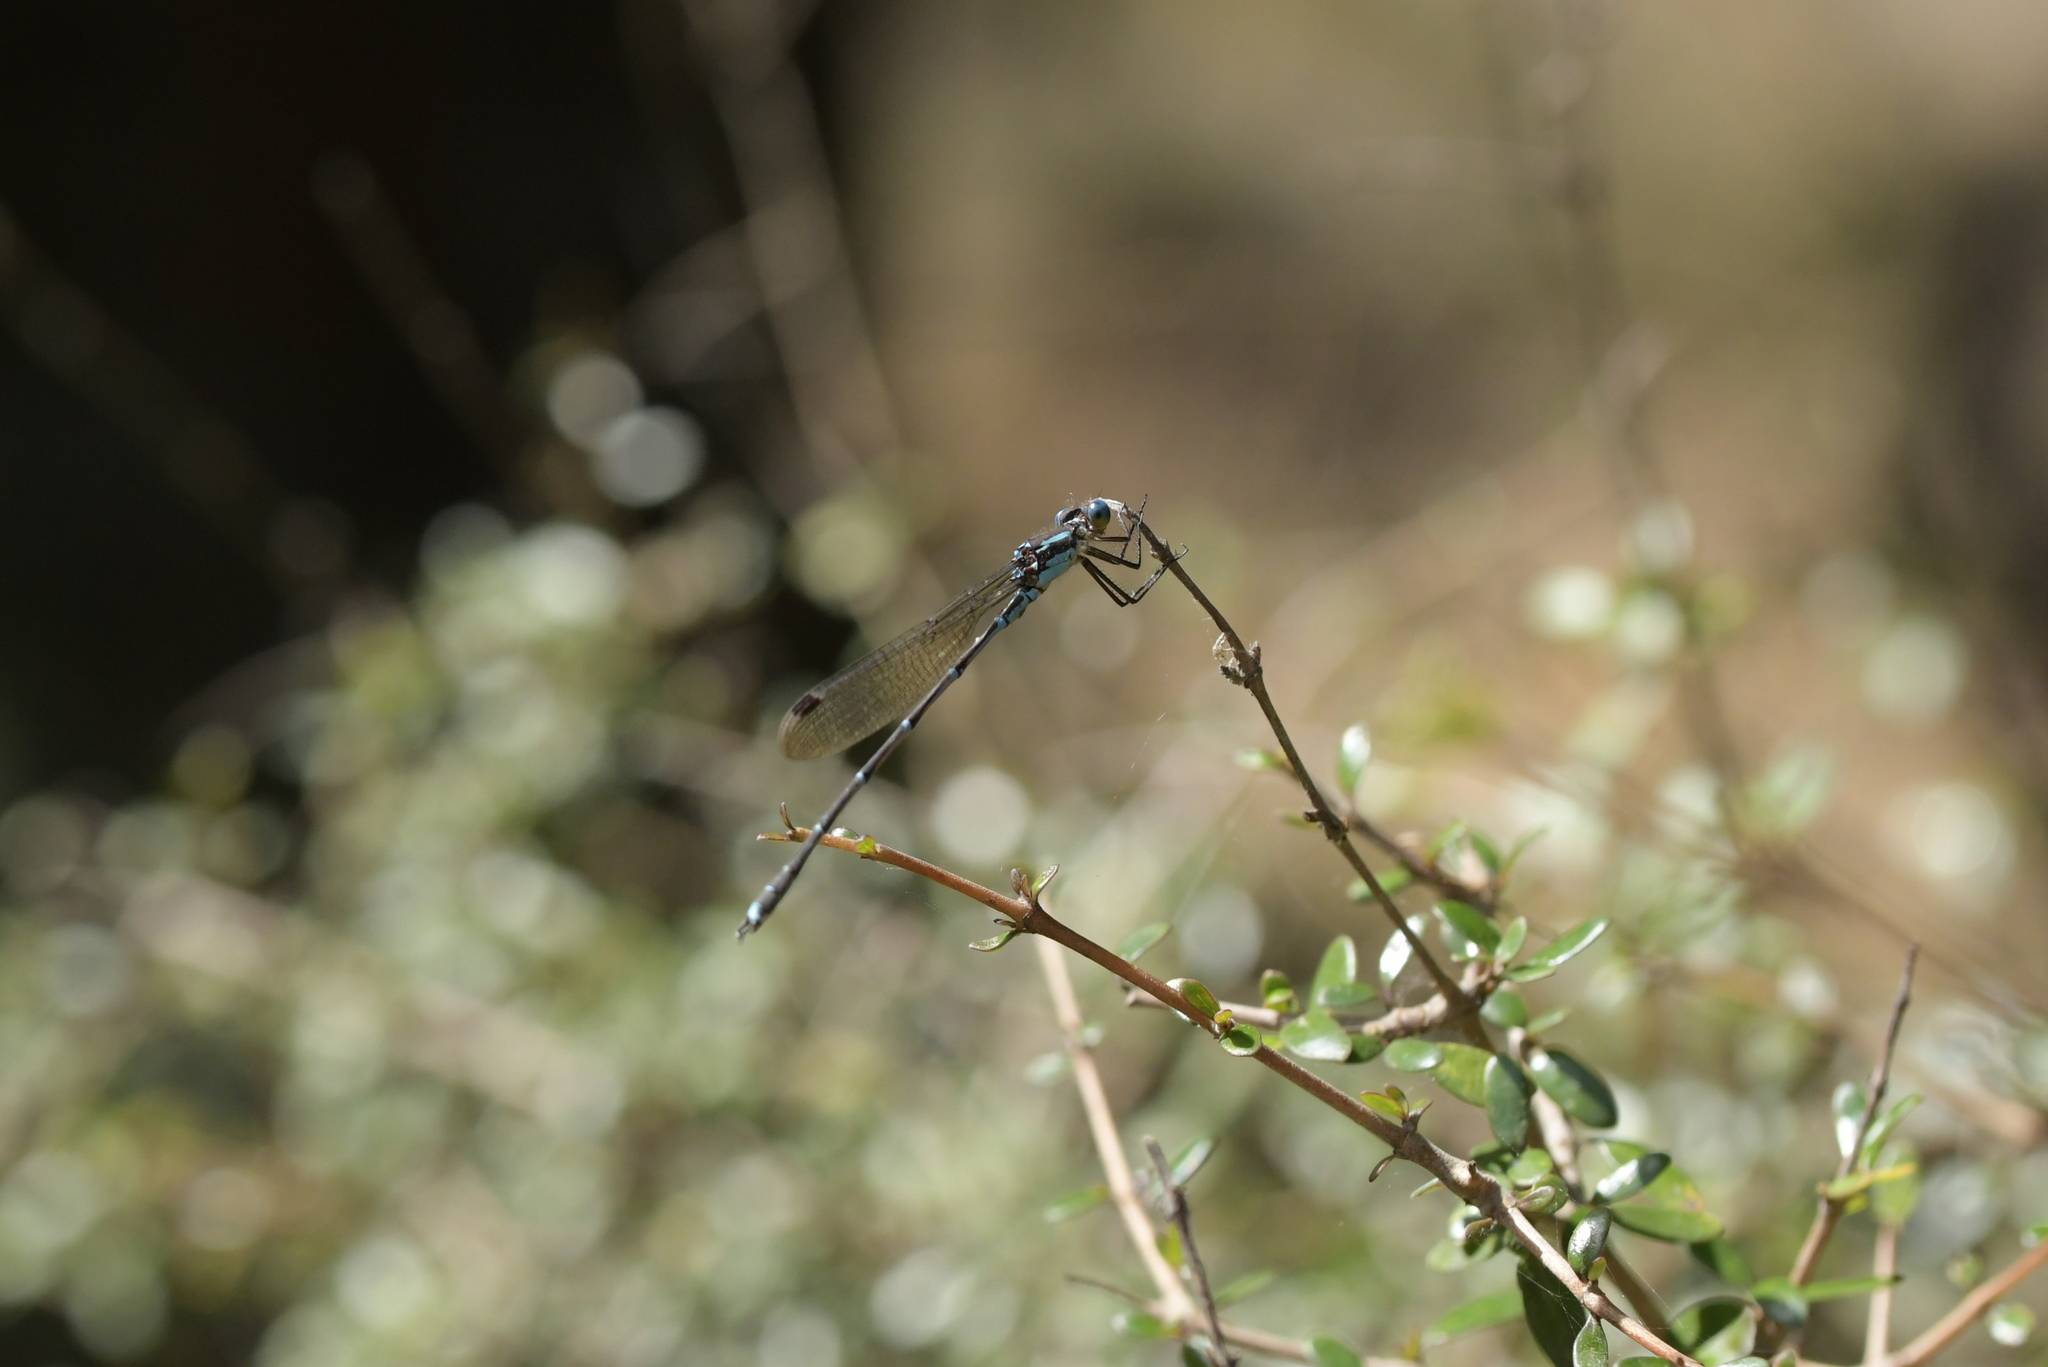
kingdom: Animalia
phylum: Arthropoda
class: Insecta
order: Odonata
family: Lestidae
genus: Austrolestes
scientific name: Austrolestes colensonis
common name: Blue damselfly
